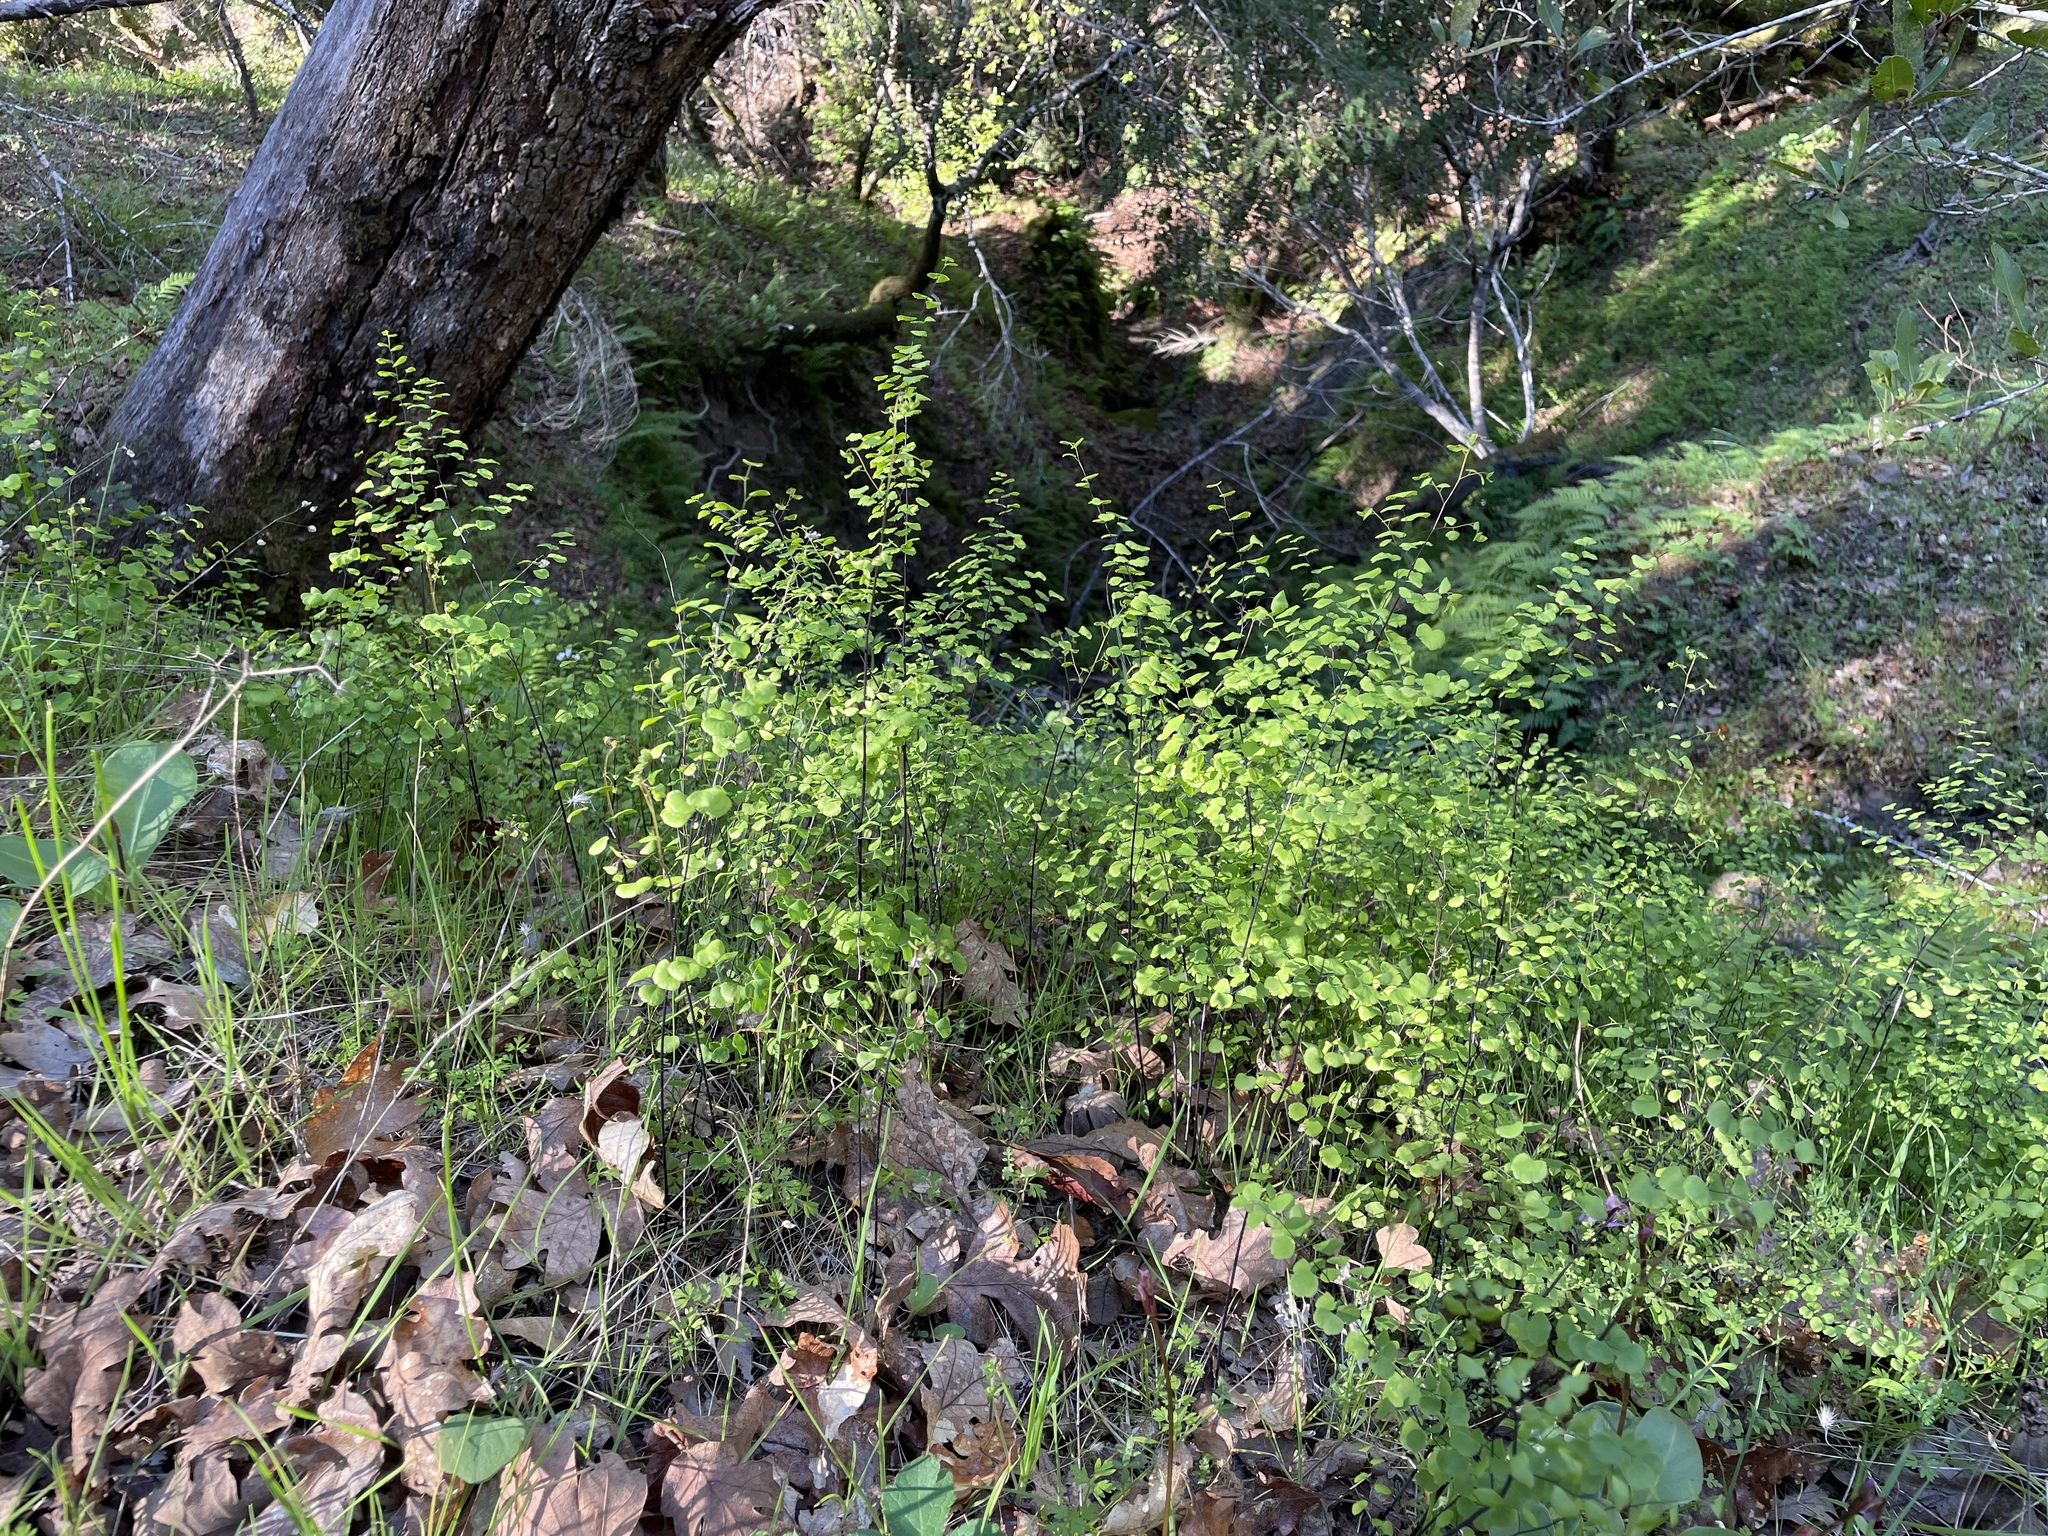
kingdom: Plantae
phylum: Tracheophyta
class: Polypodiopsida
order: Polypodiales
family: Pteridaceae
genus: Adiantum
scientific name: Adiantum jordanii
